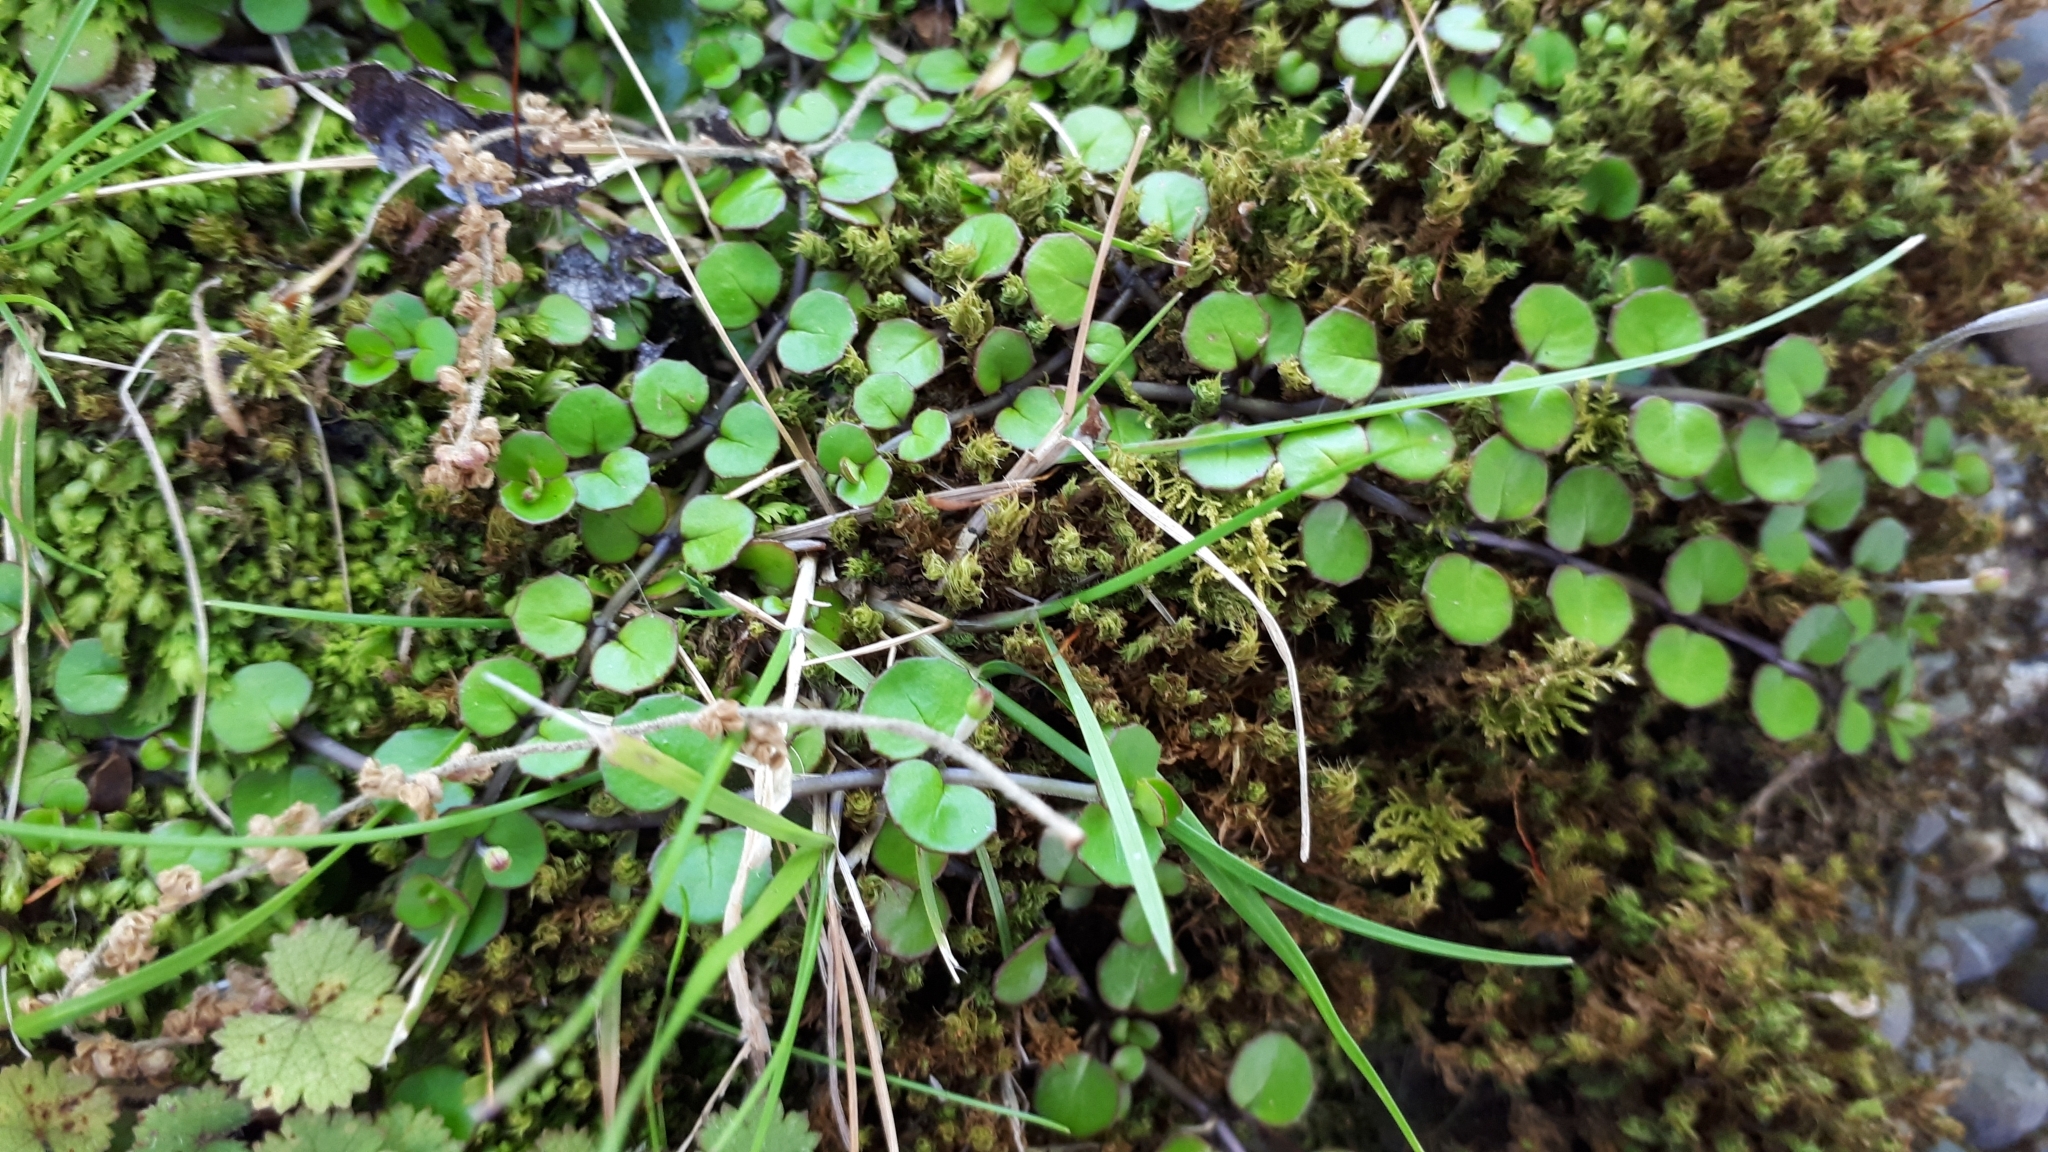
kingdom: Plantae
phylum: Tracheophyta
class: Magnoliopsida
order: Myrtales
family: Onagraceae
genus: Epilobium
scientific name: Epilobium nummularifolium
